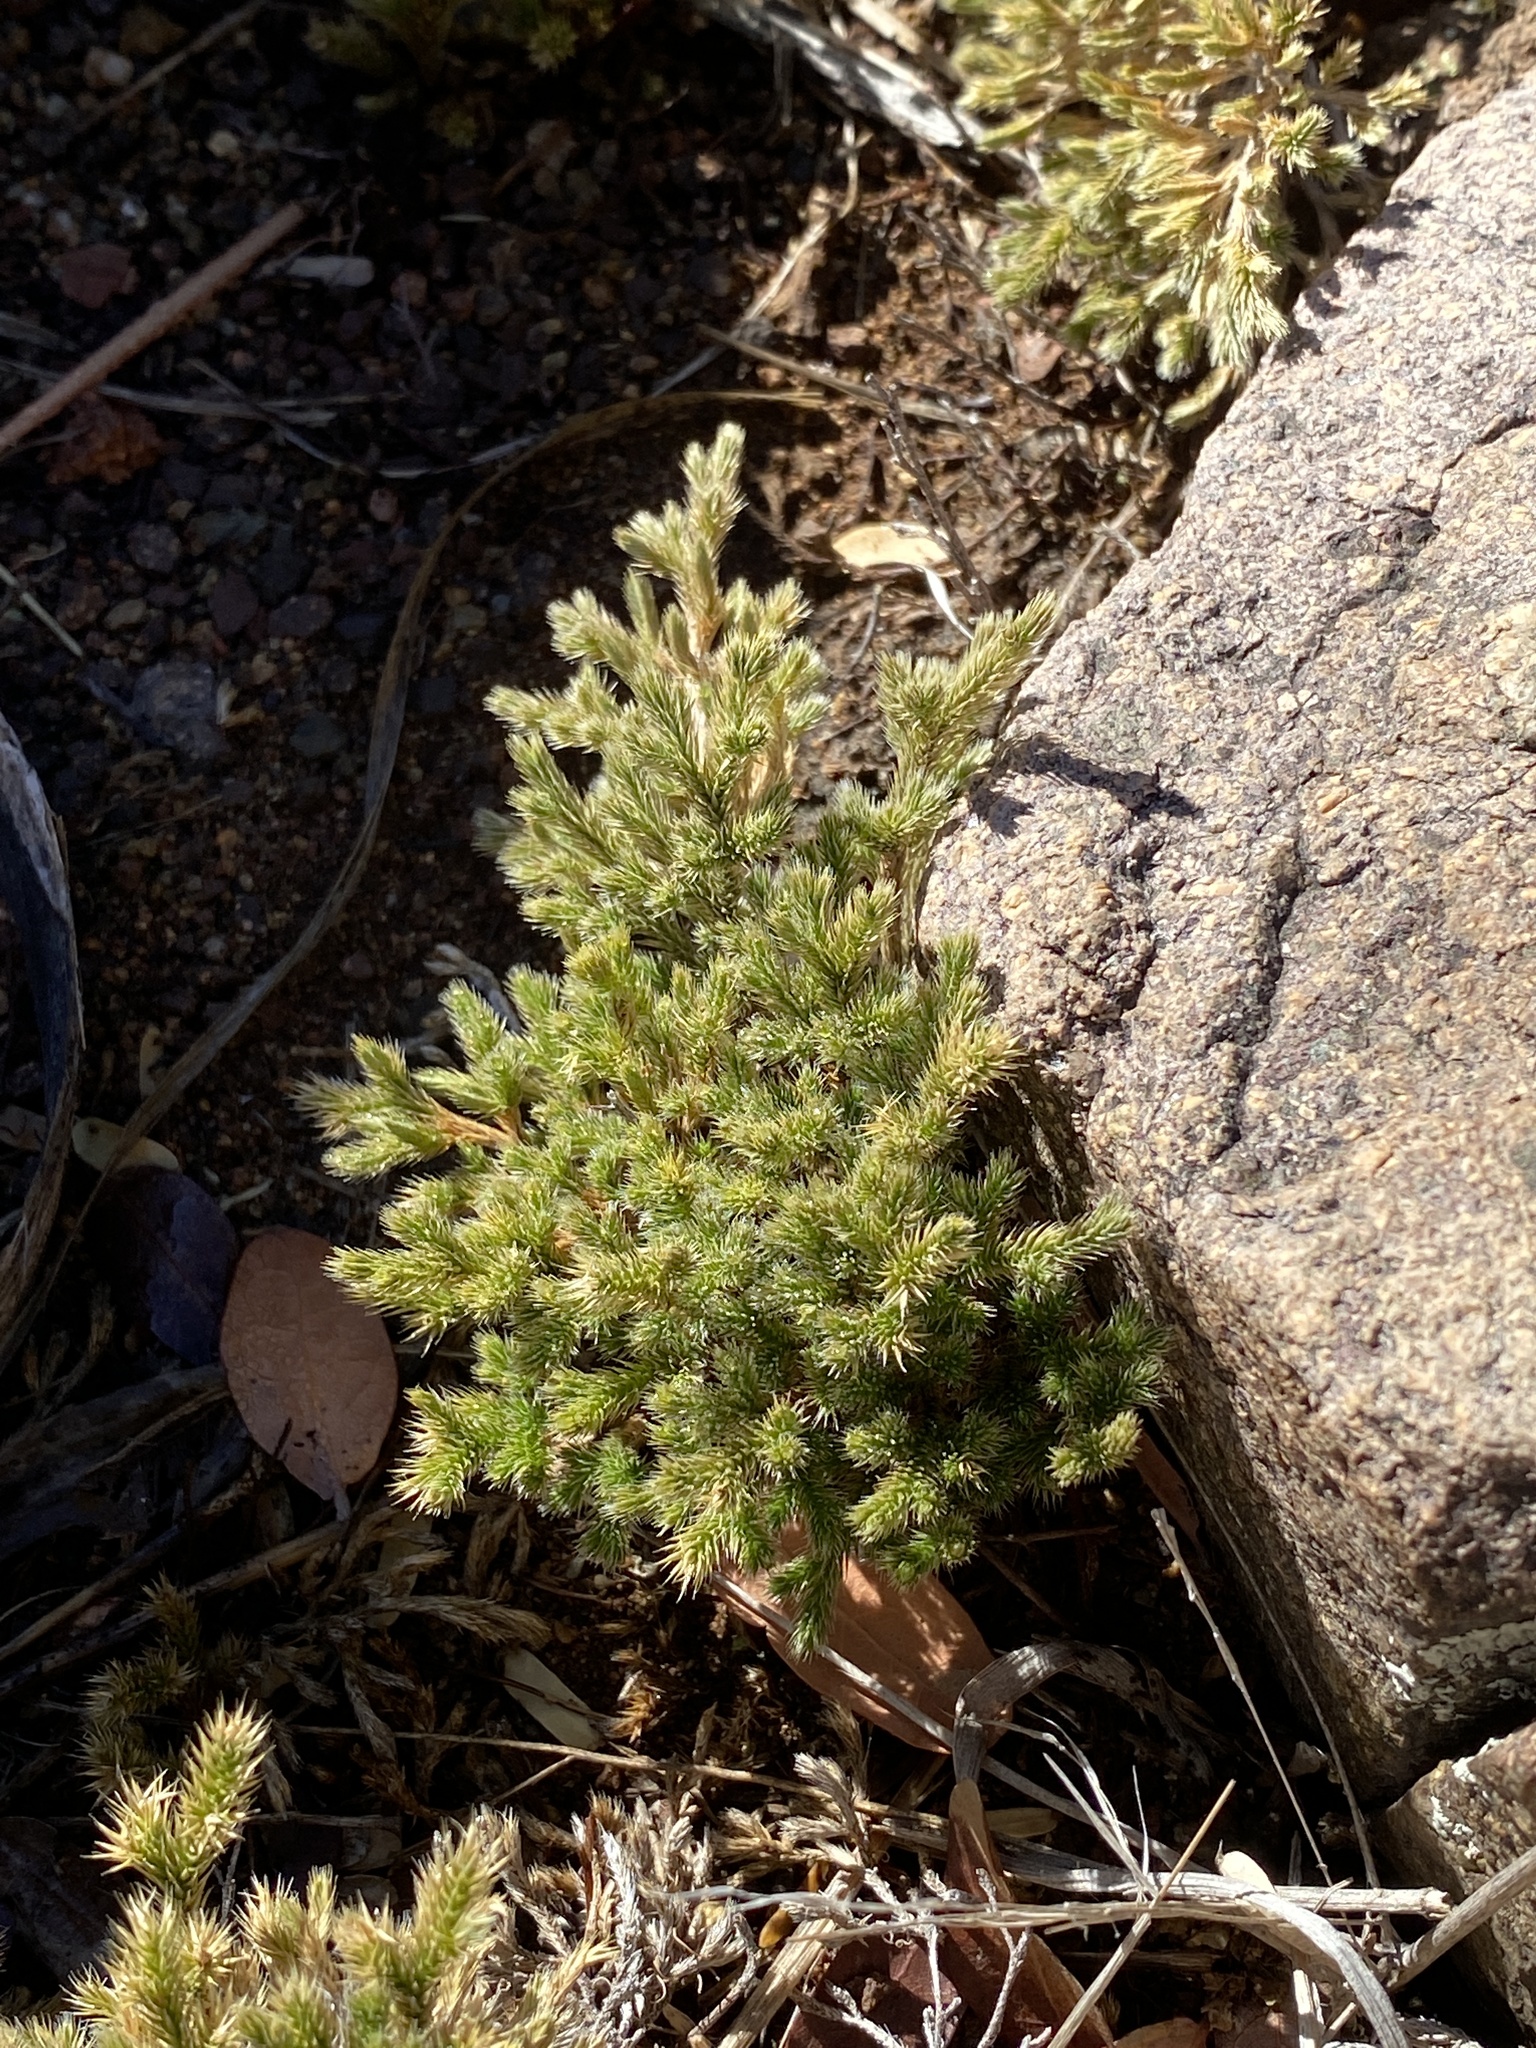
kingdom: Plantae
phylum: Tracheophyta
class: Lycopodiopsida
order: Selaginellales
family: Selaginellaceae
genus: Selaginella
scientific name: Selaginella rupincola
